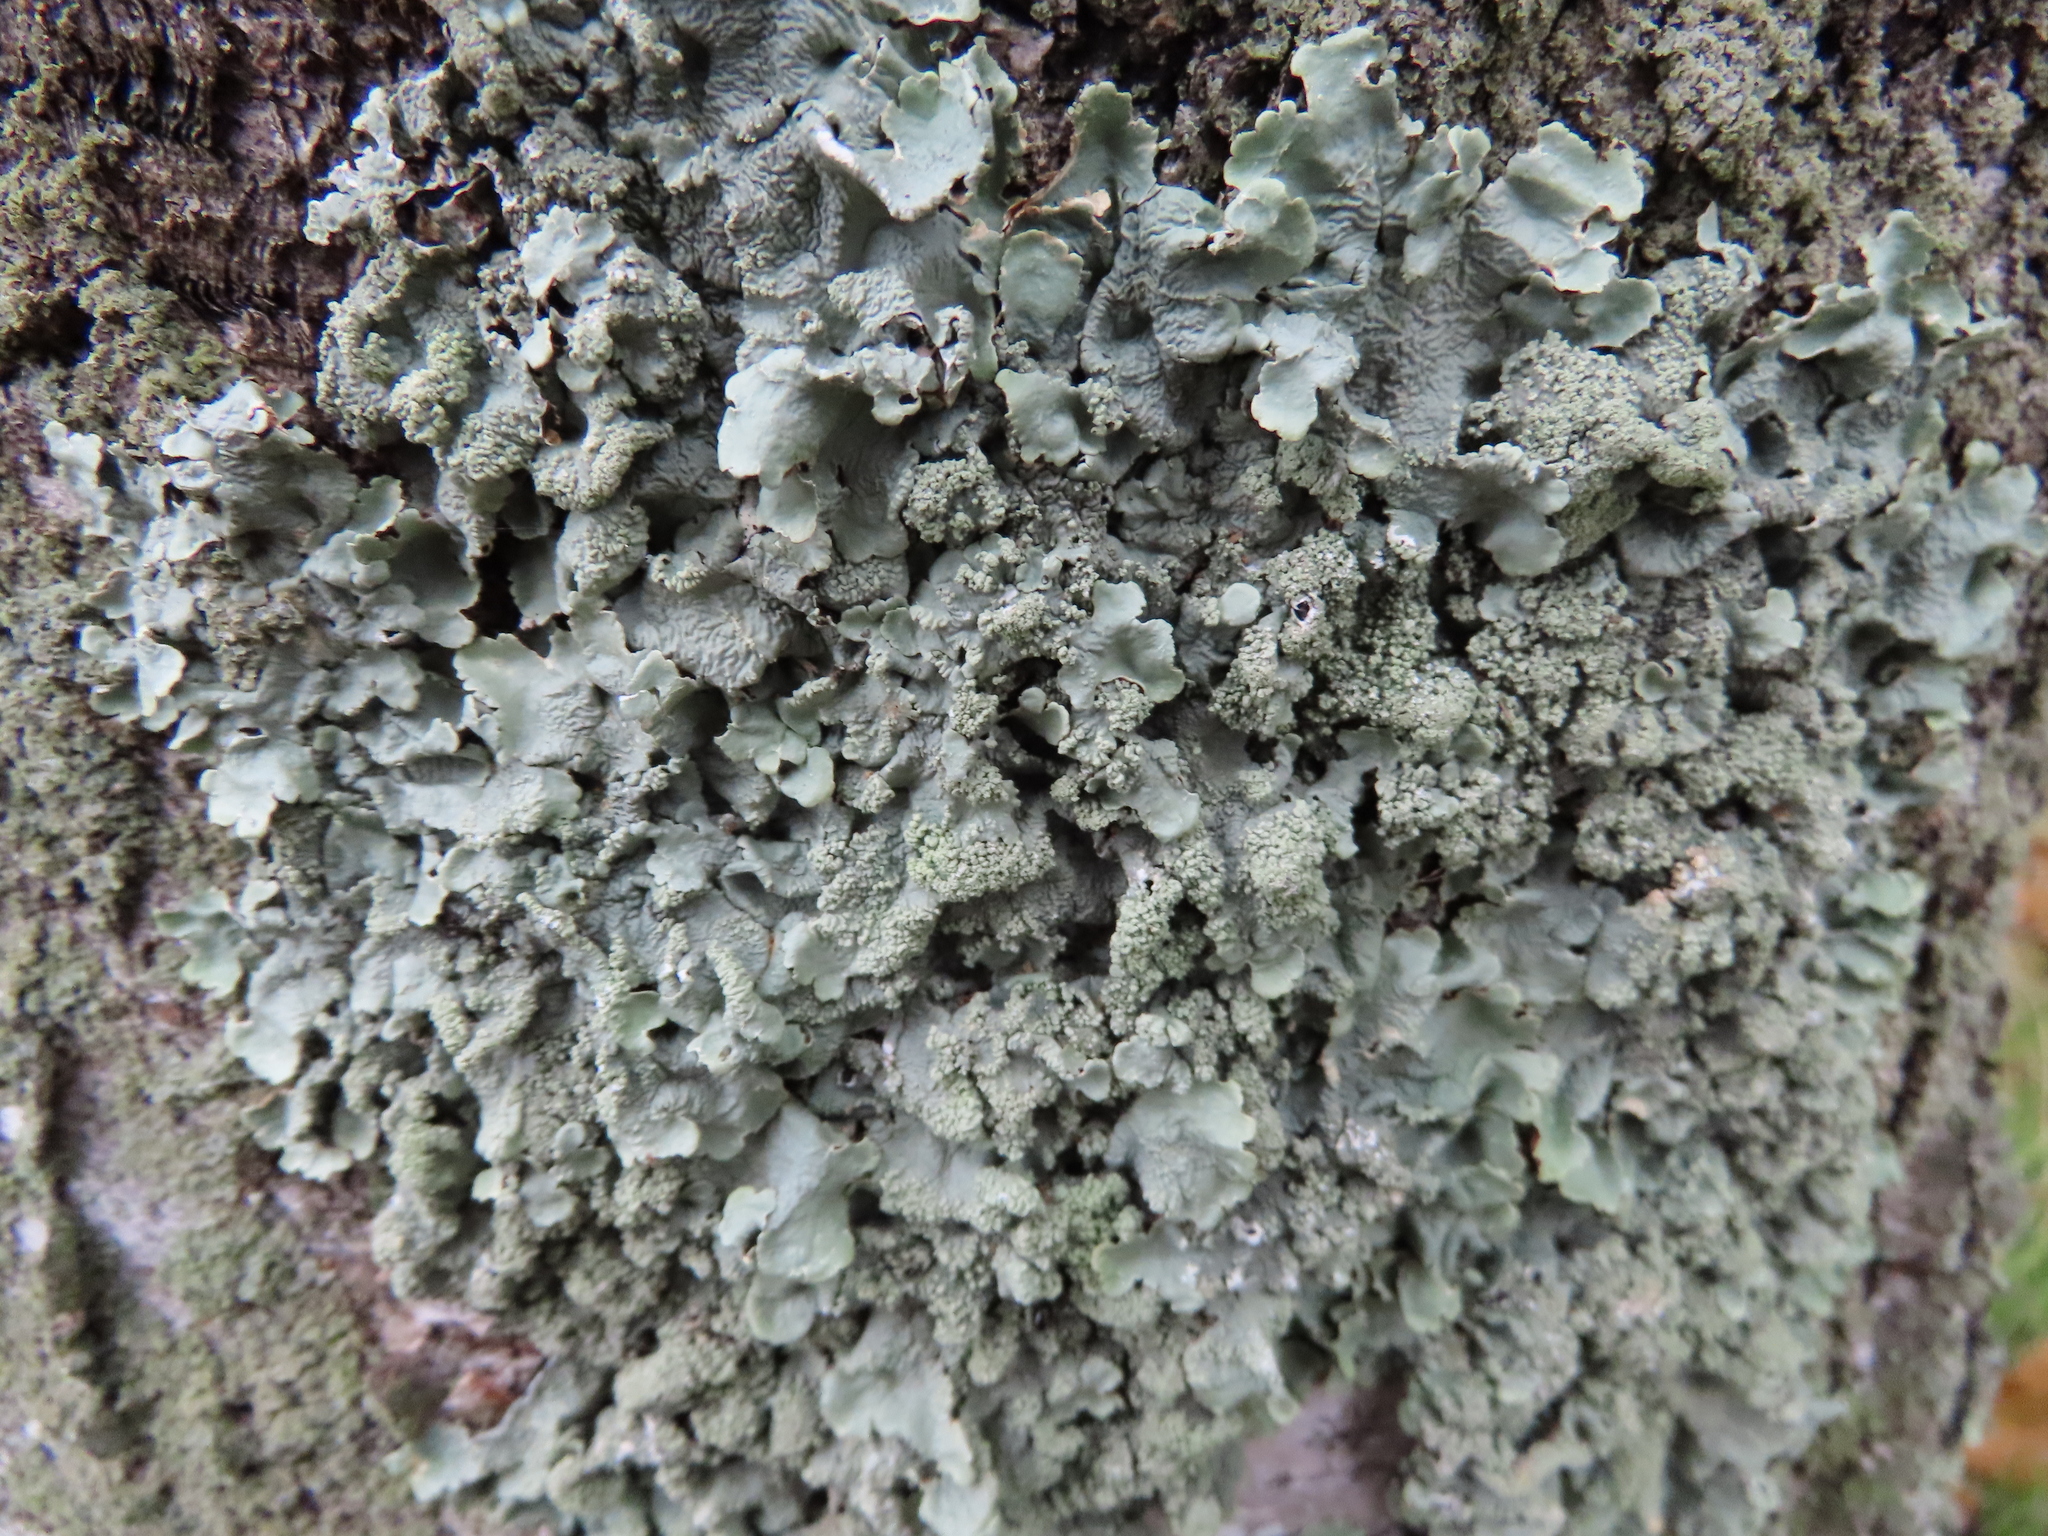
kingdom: Fungi
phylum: Ascomycota
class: Lecanoromycetes
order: Lecanorales
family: Parmeliaceae
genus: Flavoparmelia
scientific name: Flavoparmelia caperata
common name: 40-mile per hour lichen
